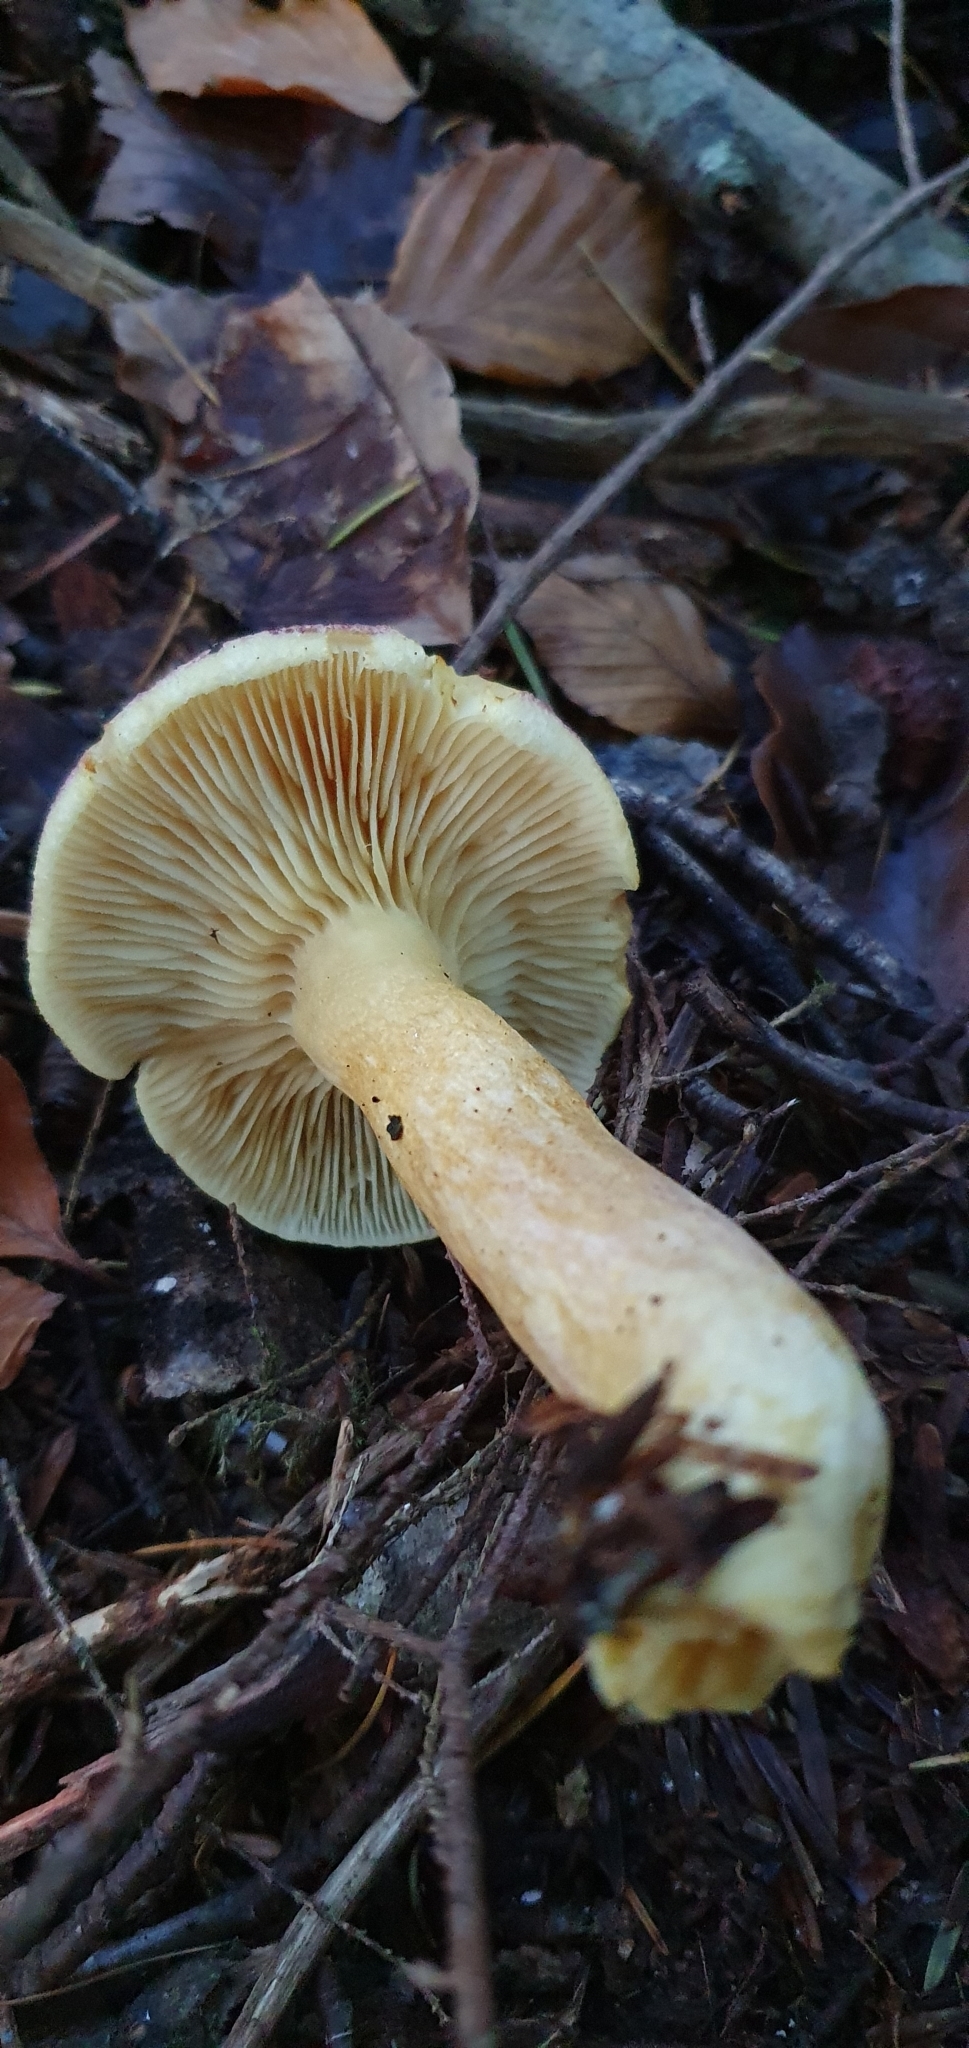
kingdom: Fungi
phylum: Basidiomycota
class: Agaricomycetes
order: Agaricales
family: Tricholomataceae
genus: Tricholomopsis
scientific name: Tricholomopsis rutilans
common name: Plums and custard
